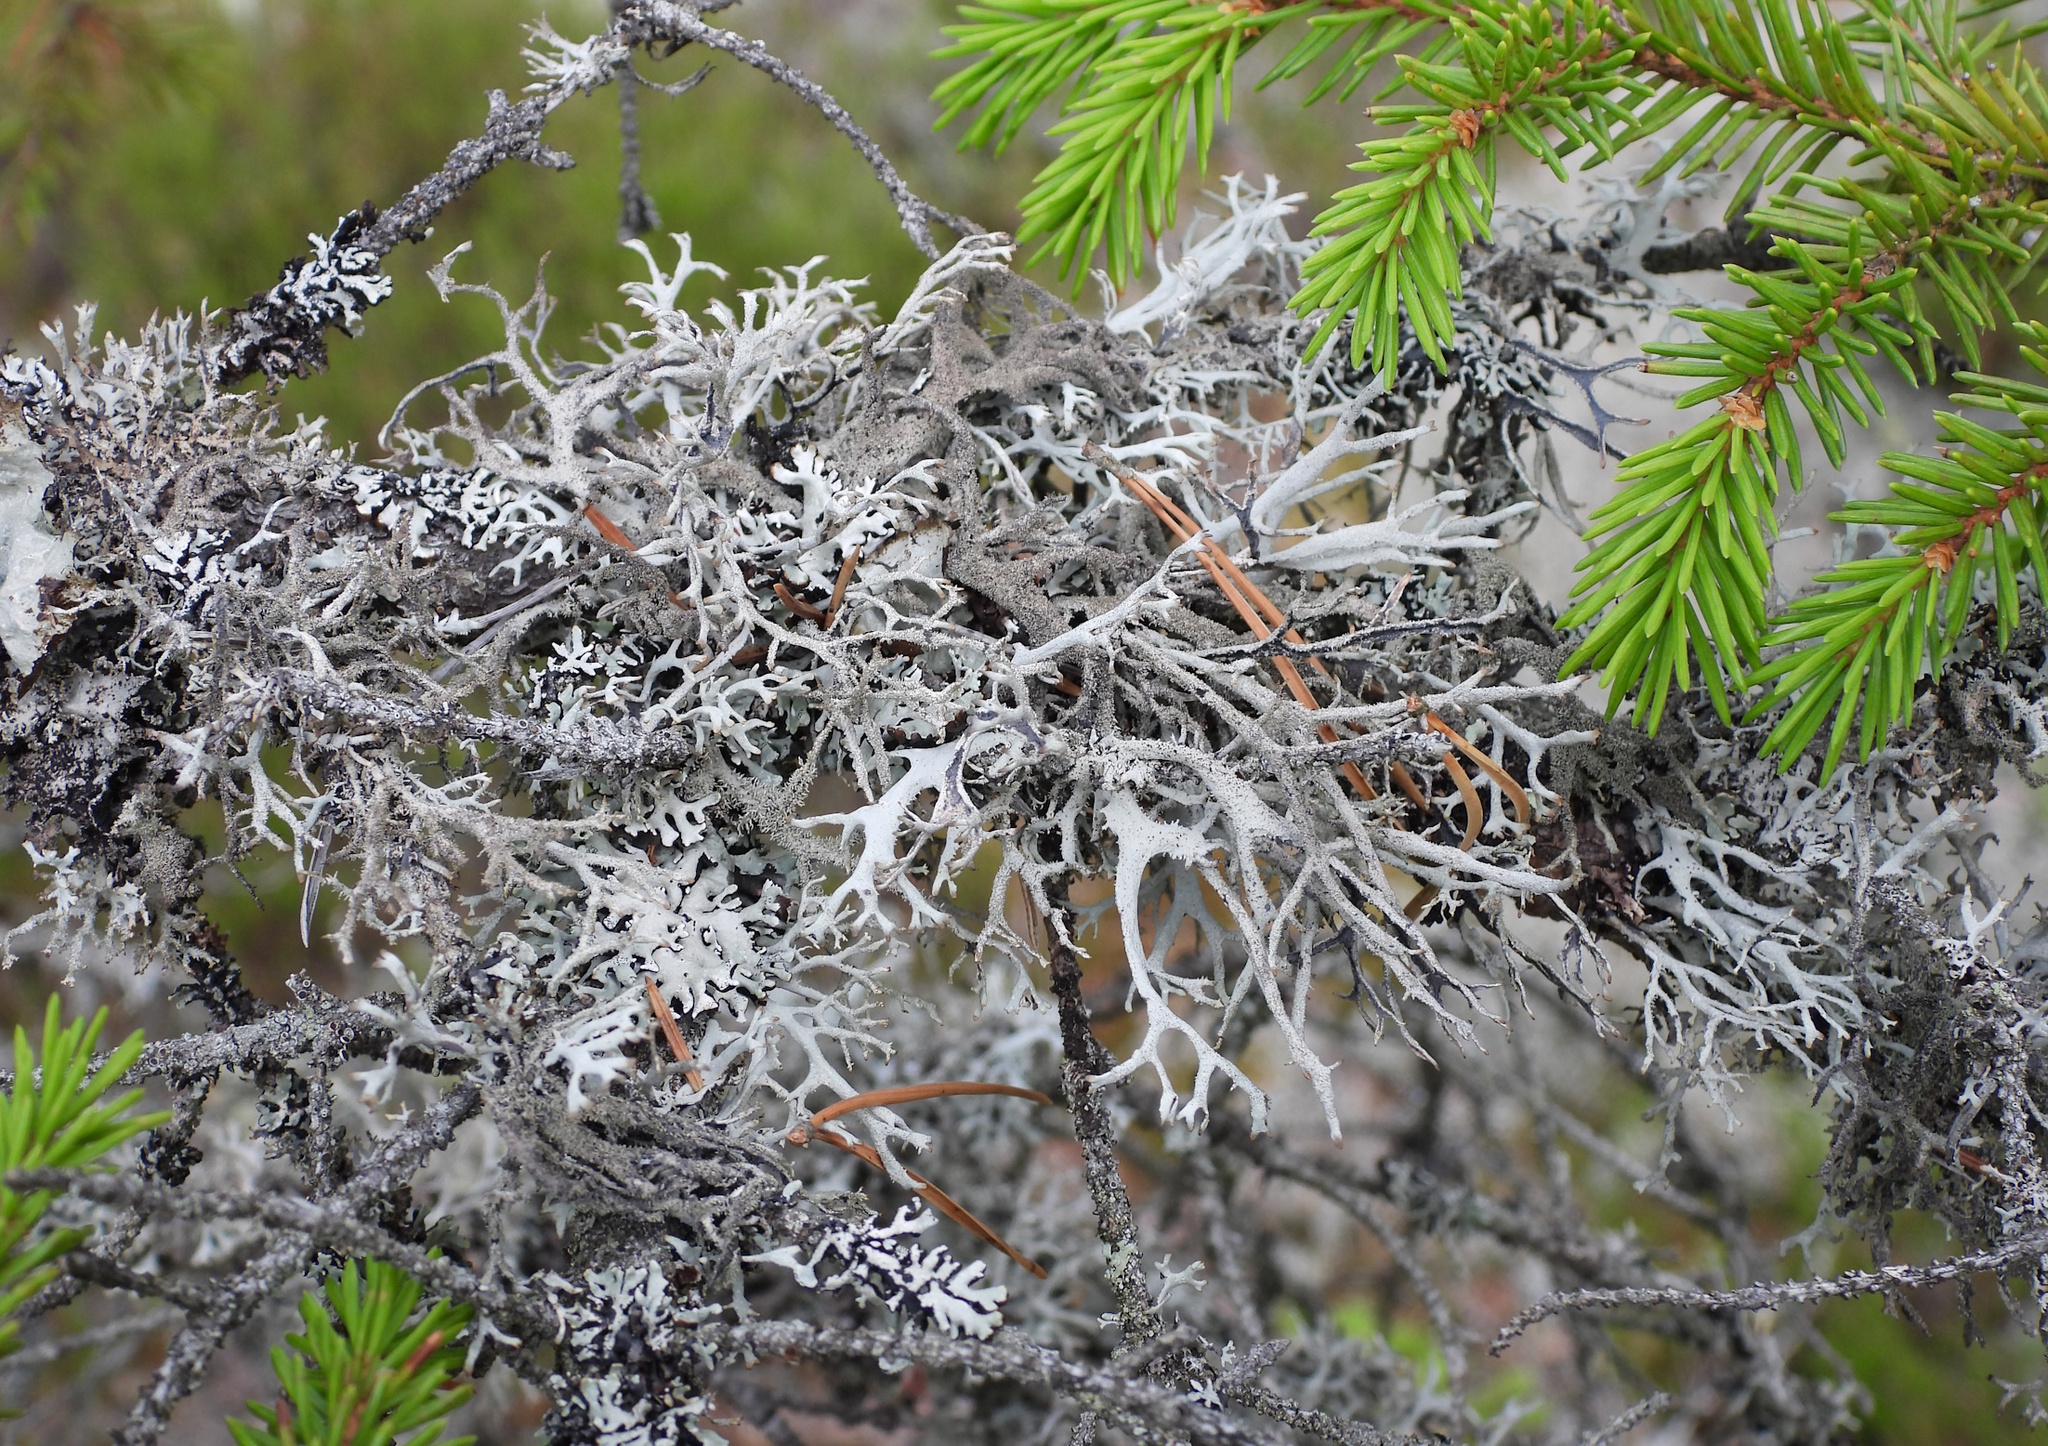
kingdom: Fungi
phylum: Ascomycota
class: Lecanoromycetes
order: Lecanorales
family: Parmeliaceae
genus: Pseudevernia
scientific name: Pseudevernia furfuracea
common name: Tree moss
